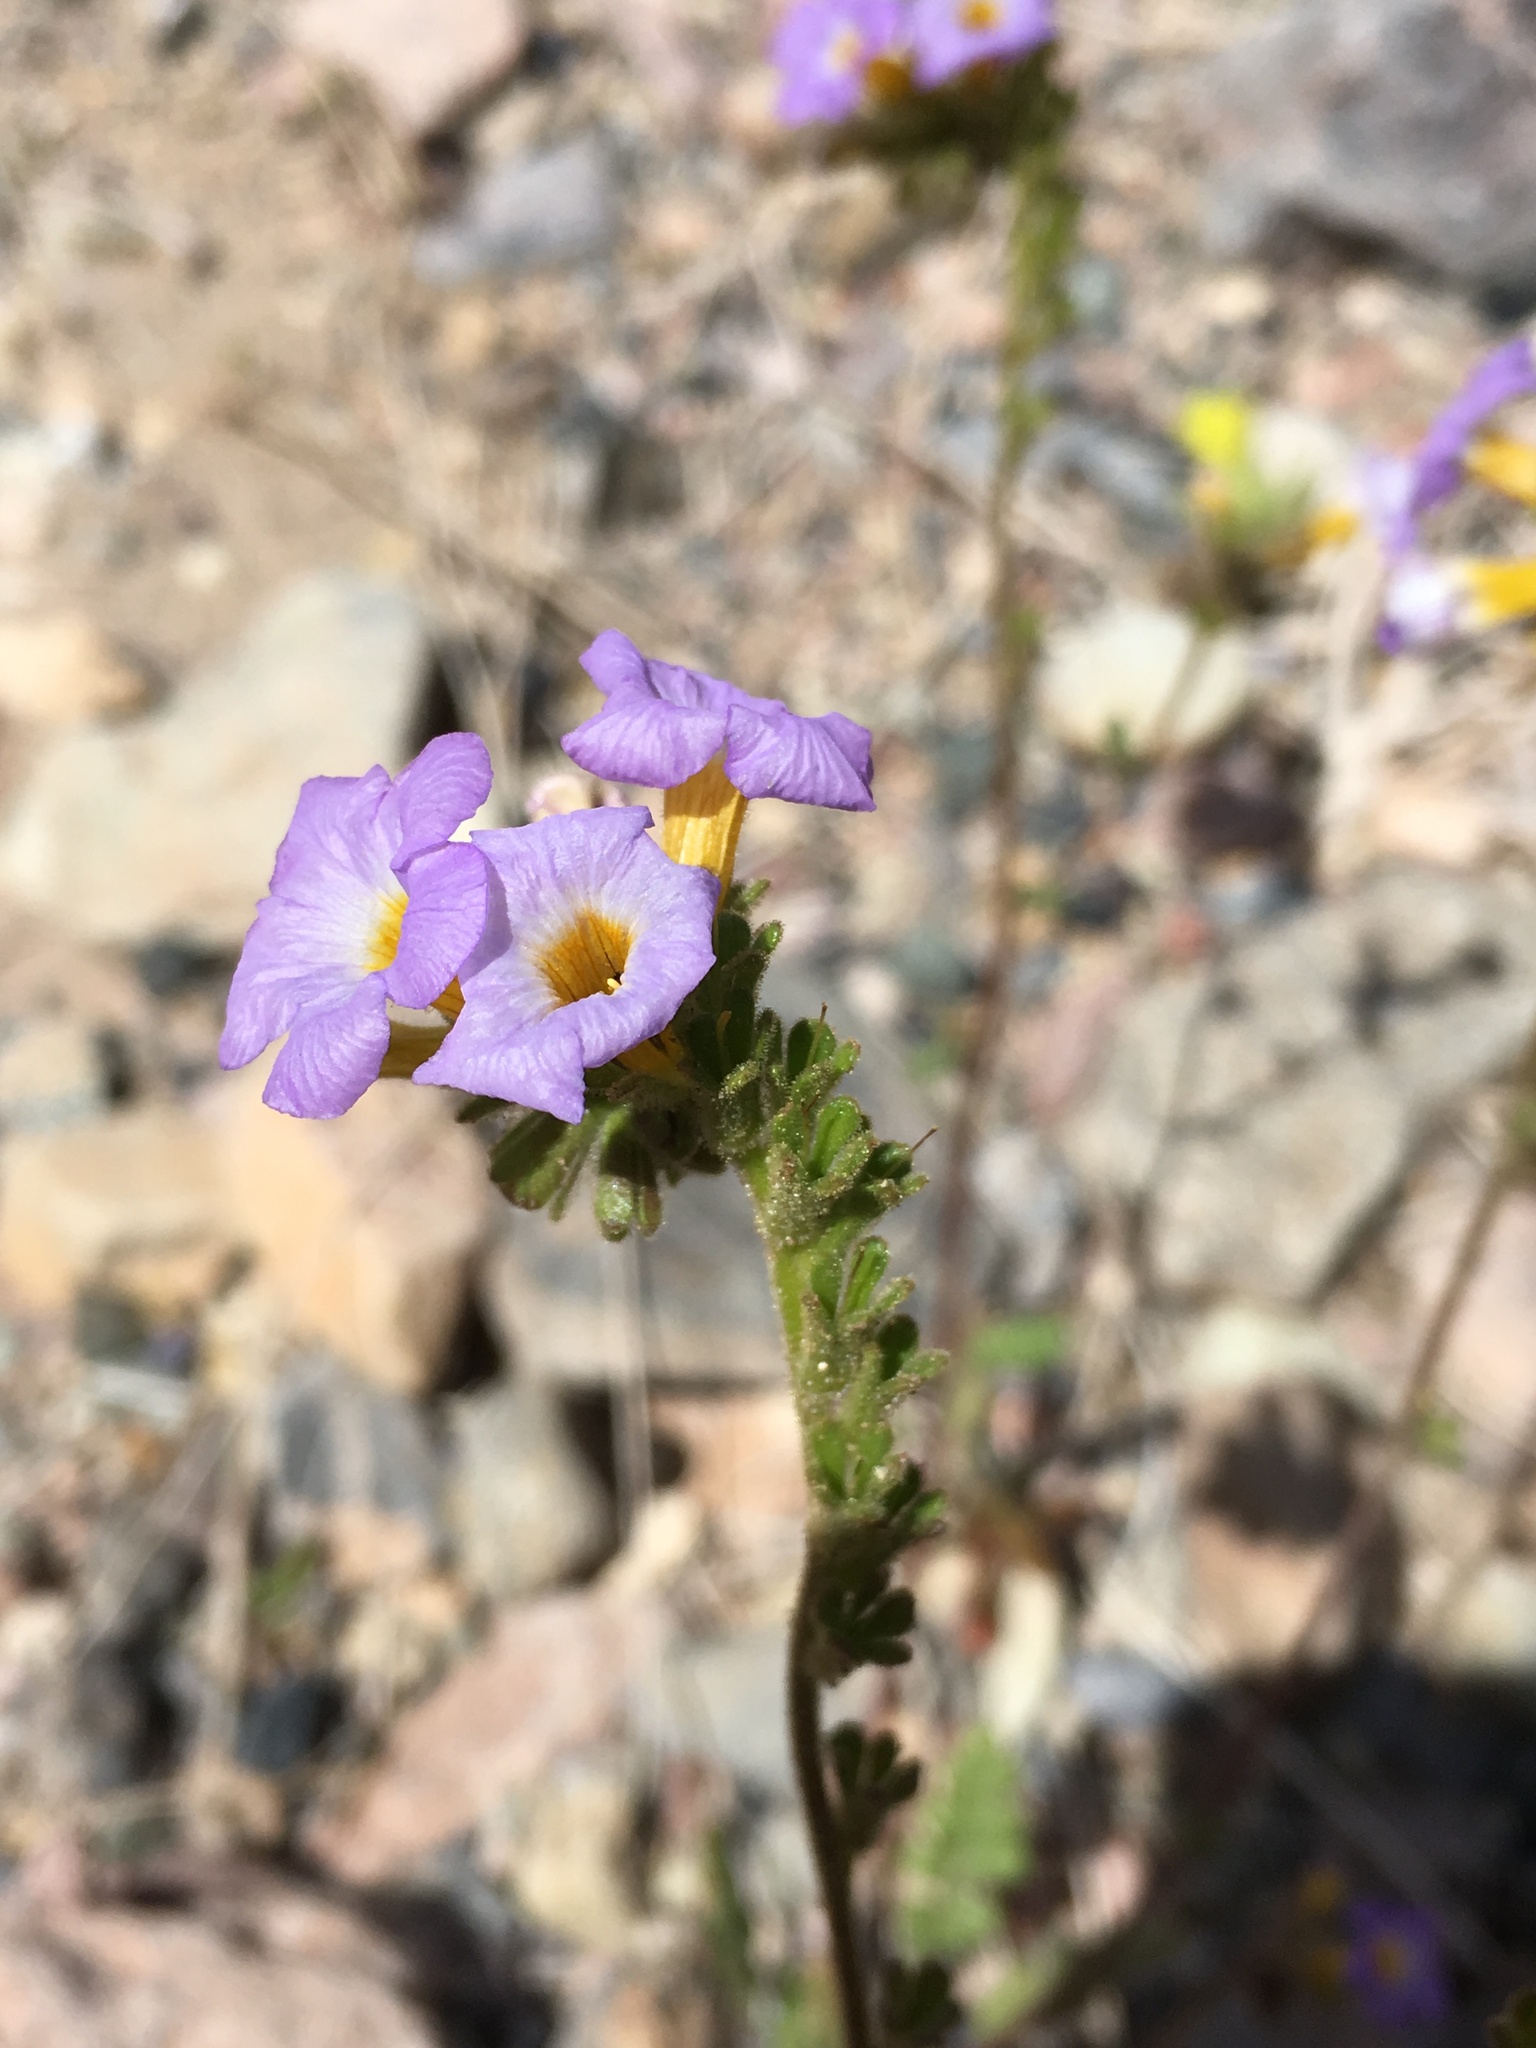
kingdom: Plantae
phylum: Tracheophyta
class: Magnoliopsida
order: Boraginales
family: Hydrophyllaceae
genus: Phacelia
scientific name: Phacelia fremontii
